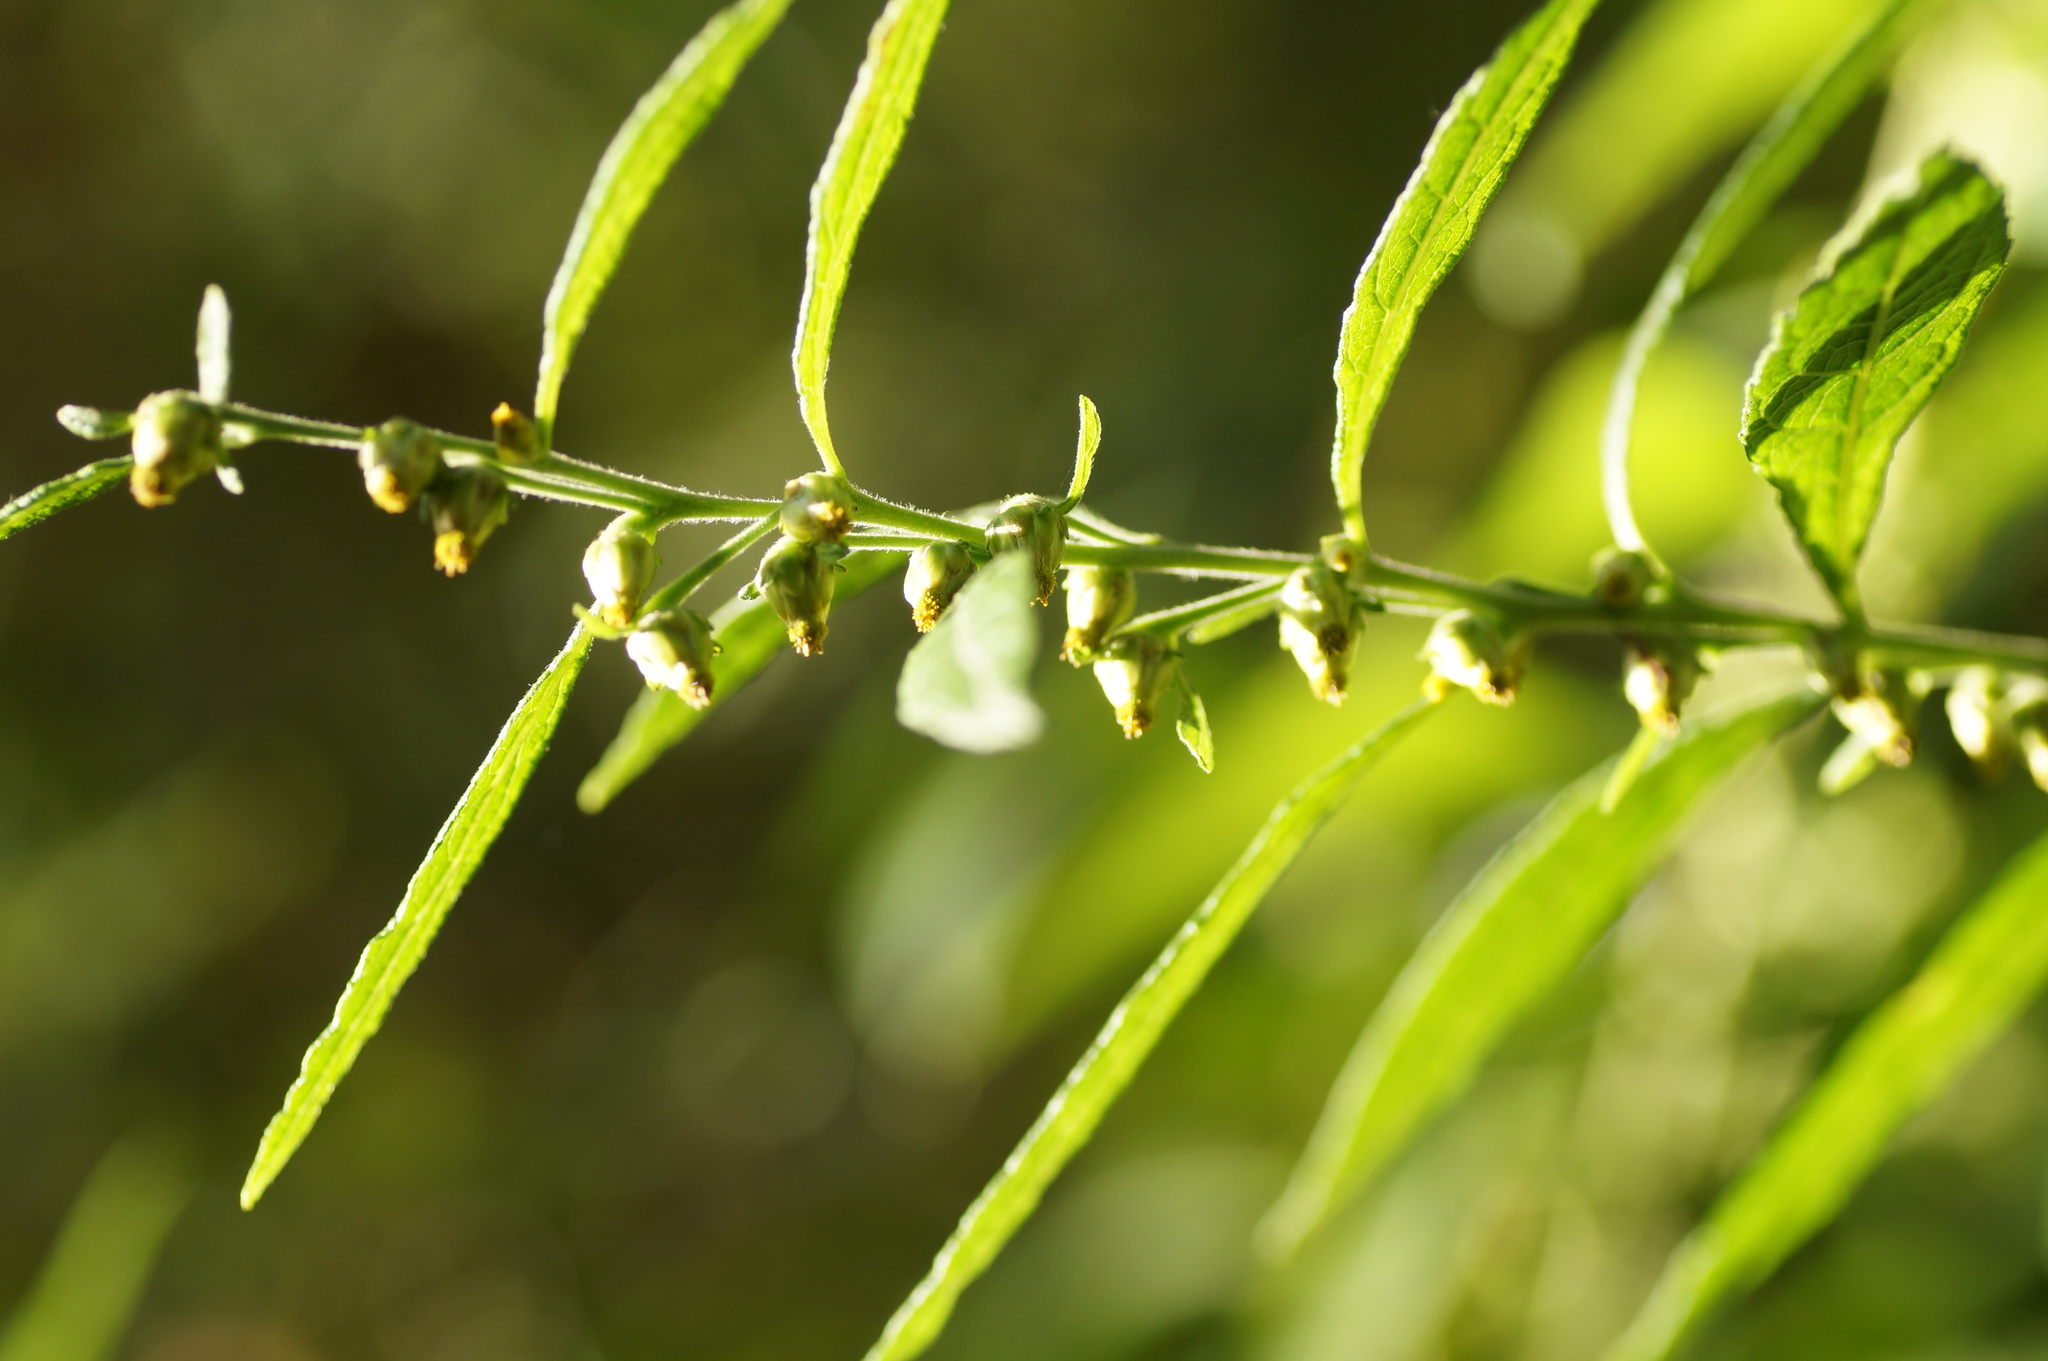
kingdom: Plantae
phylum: Tracheophyta
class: Magnoliopsida
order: Asterales
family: Asteraceae
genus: Carpesium
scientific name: Carpesium abrotanoides
